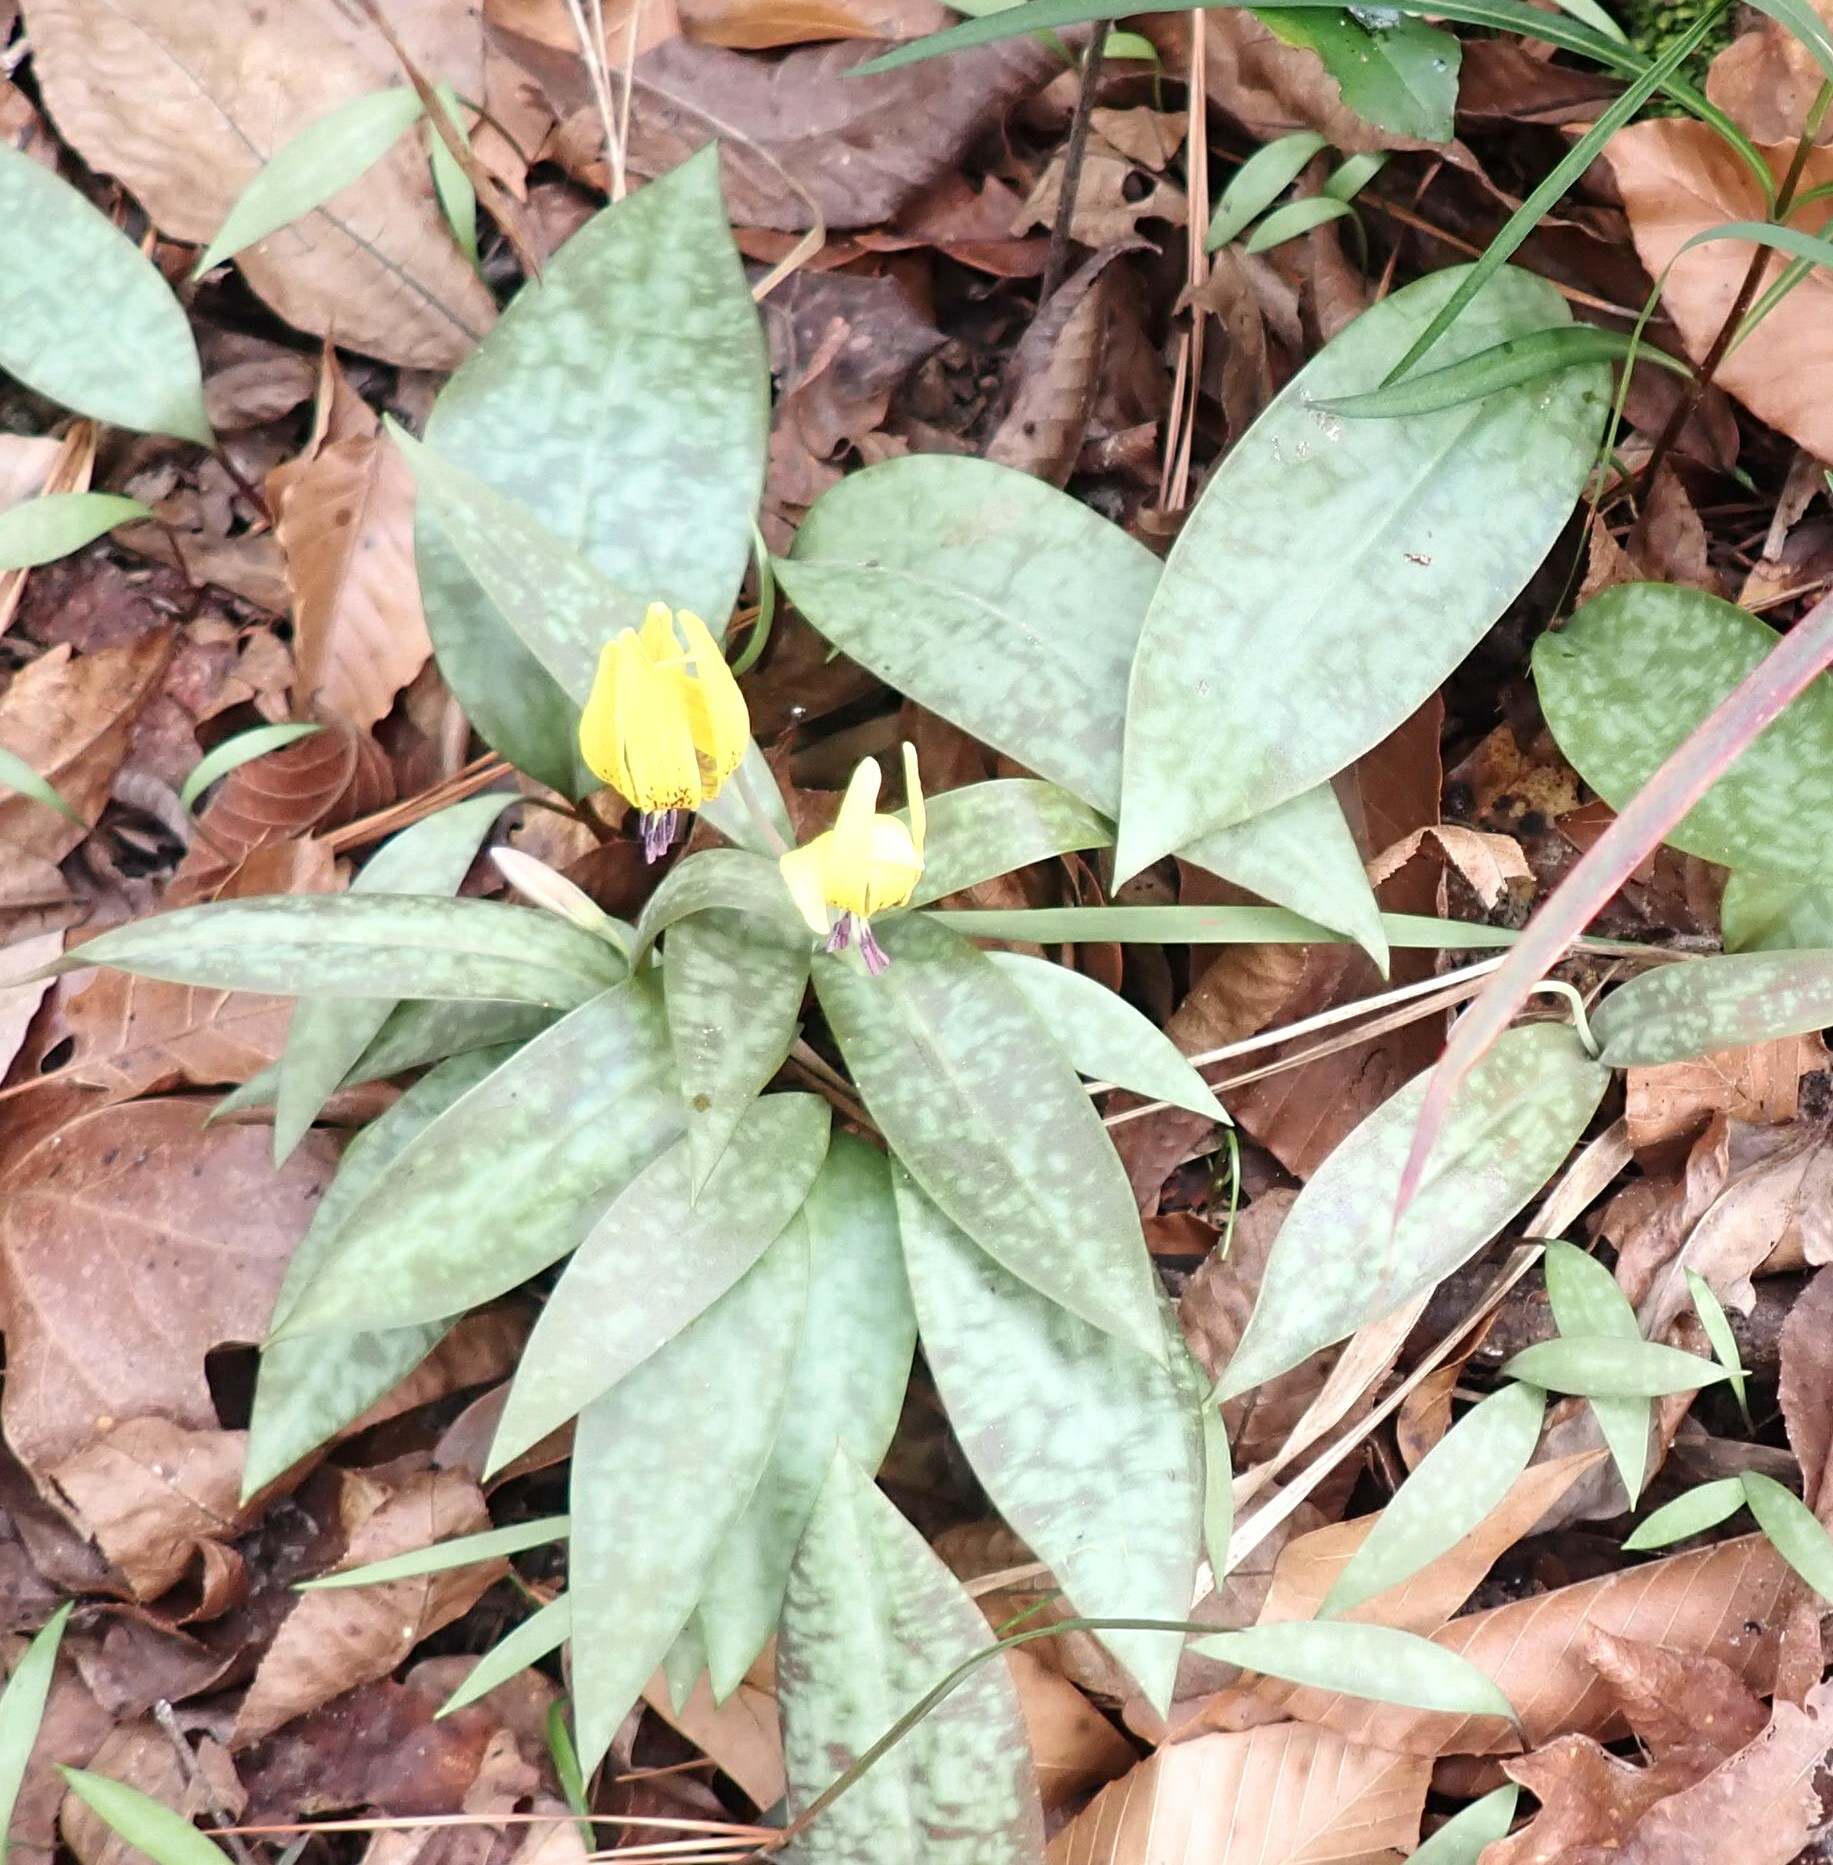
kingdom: Plantae
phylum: Tracheophyta
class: Liliopsida
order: Liliales
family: Liliaceae
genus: Erythronium
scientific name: Erythronium umbilicatum
